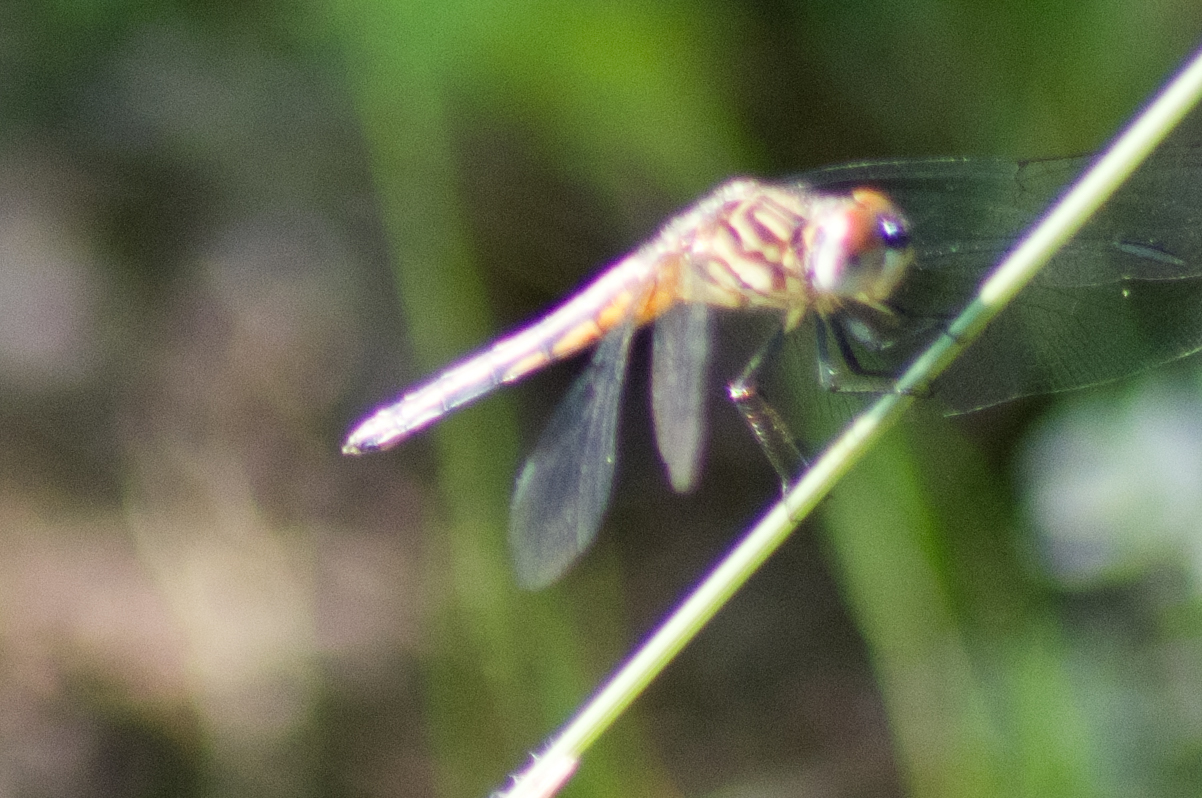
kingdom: Animalia
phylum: Arthropoda
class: Insecta
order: Odonata
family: Libellulidae
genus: Pachydiplax
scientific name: Pachydiplax longipennis
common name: Blue dasher
